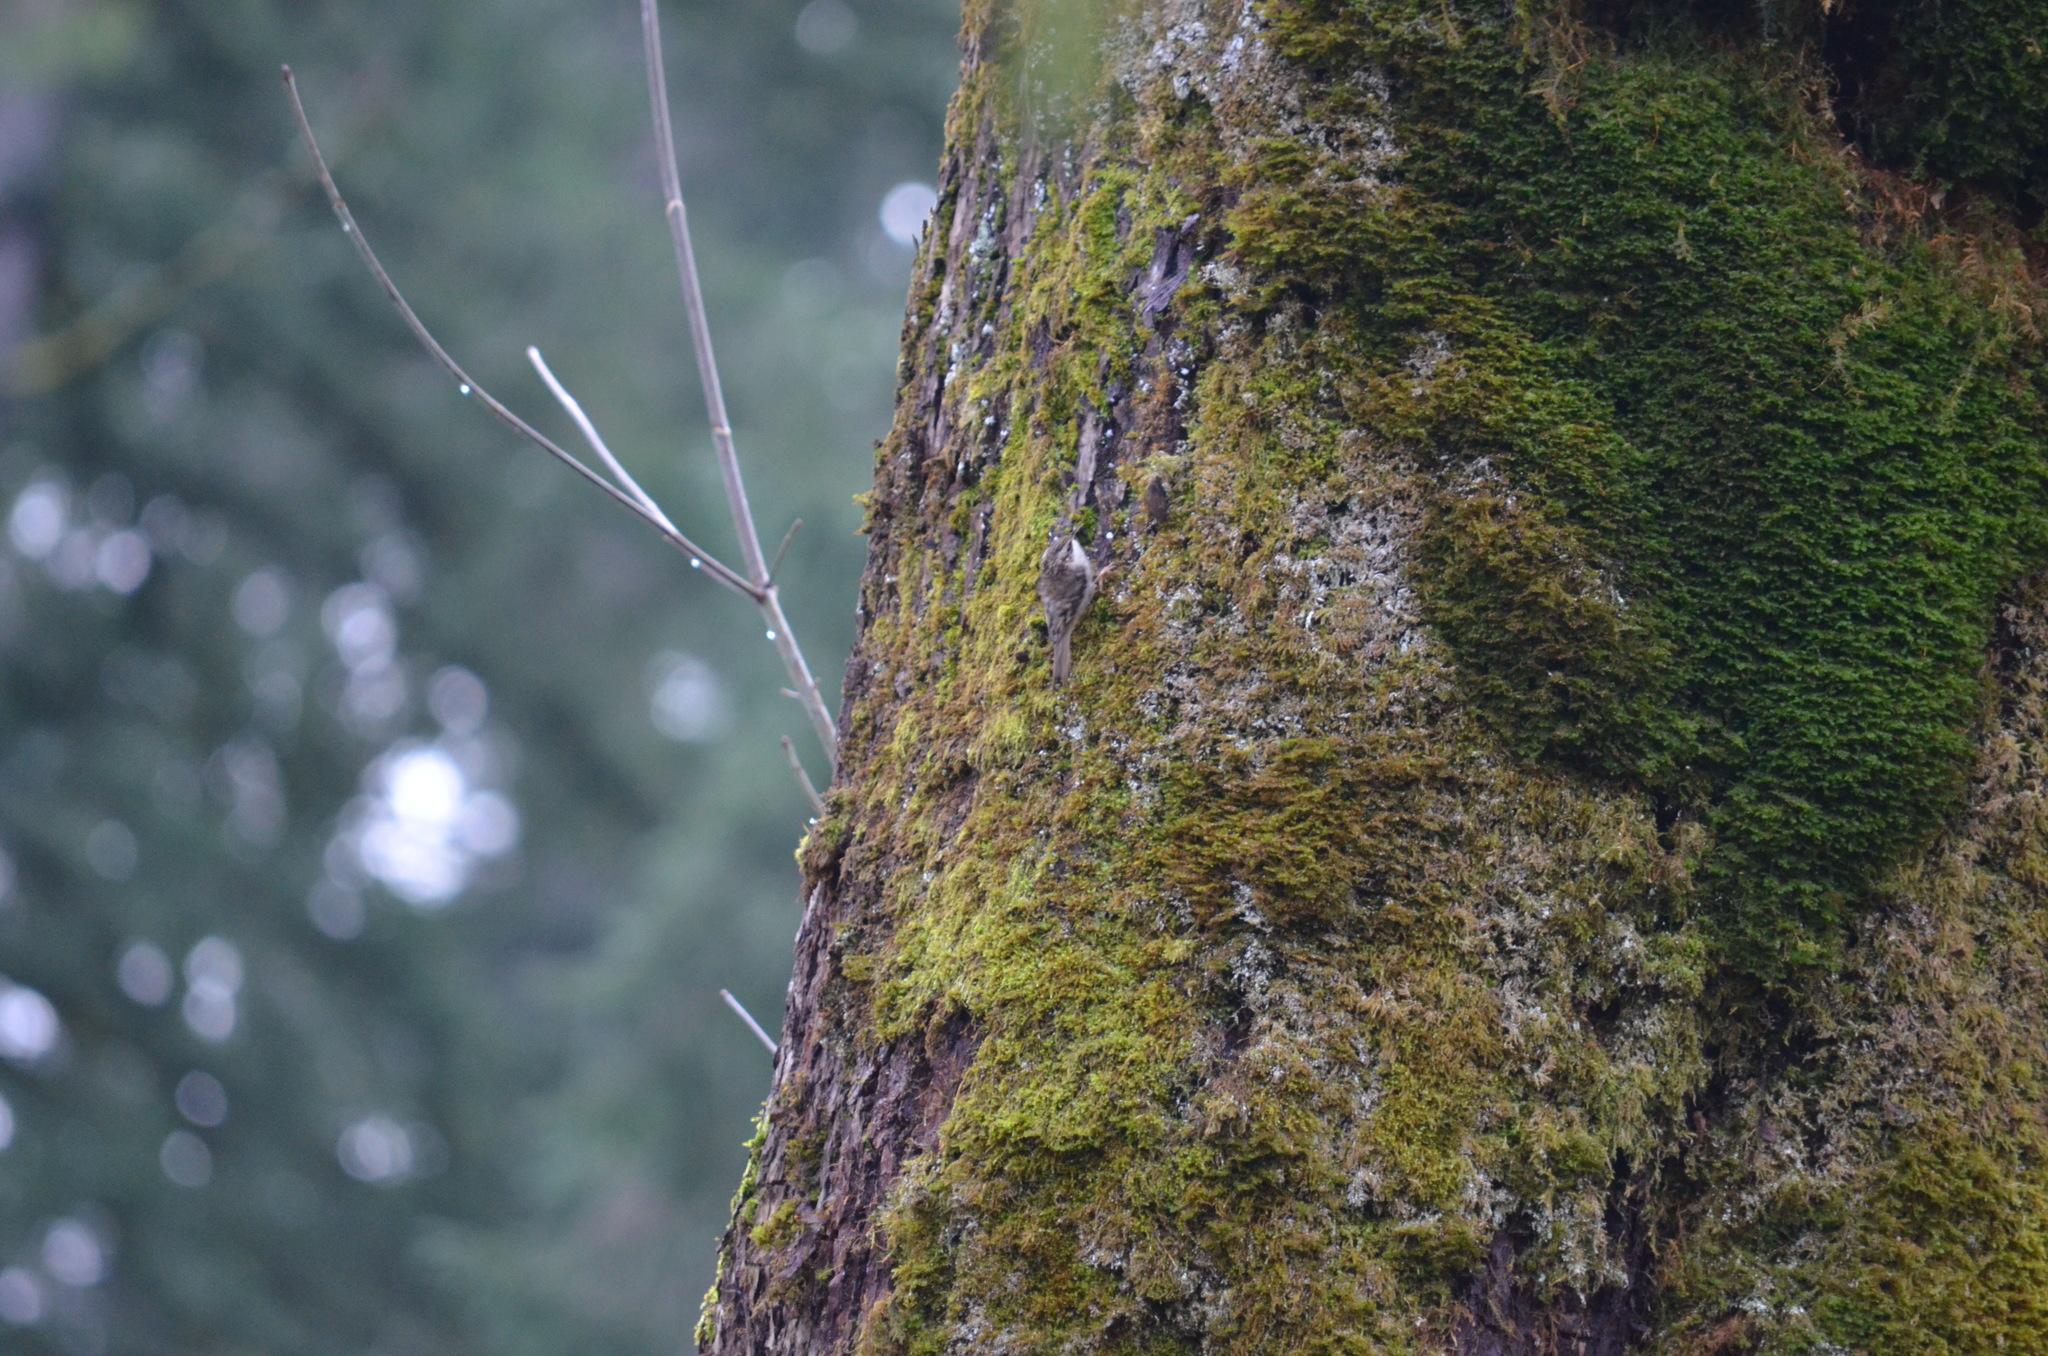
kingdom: Animalia
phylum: Chordata
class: Aves
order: Passeriformes
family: Certhiidae
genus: Certhia
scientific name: Certhia americana
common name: Brown creeper
